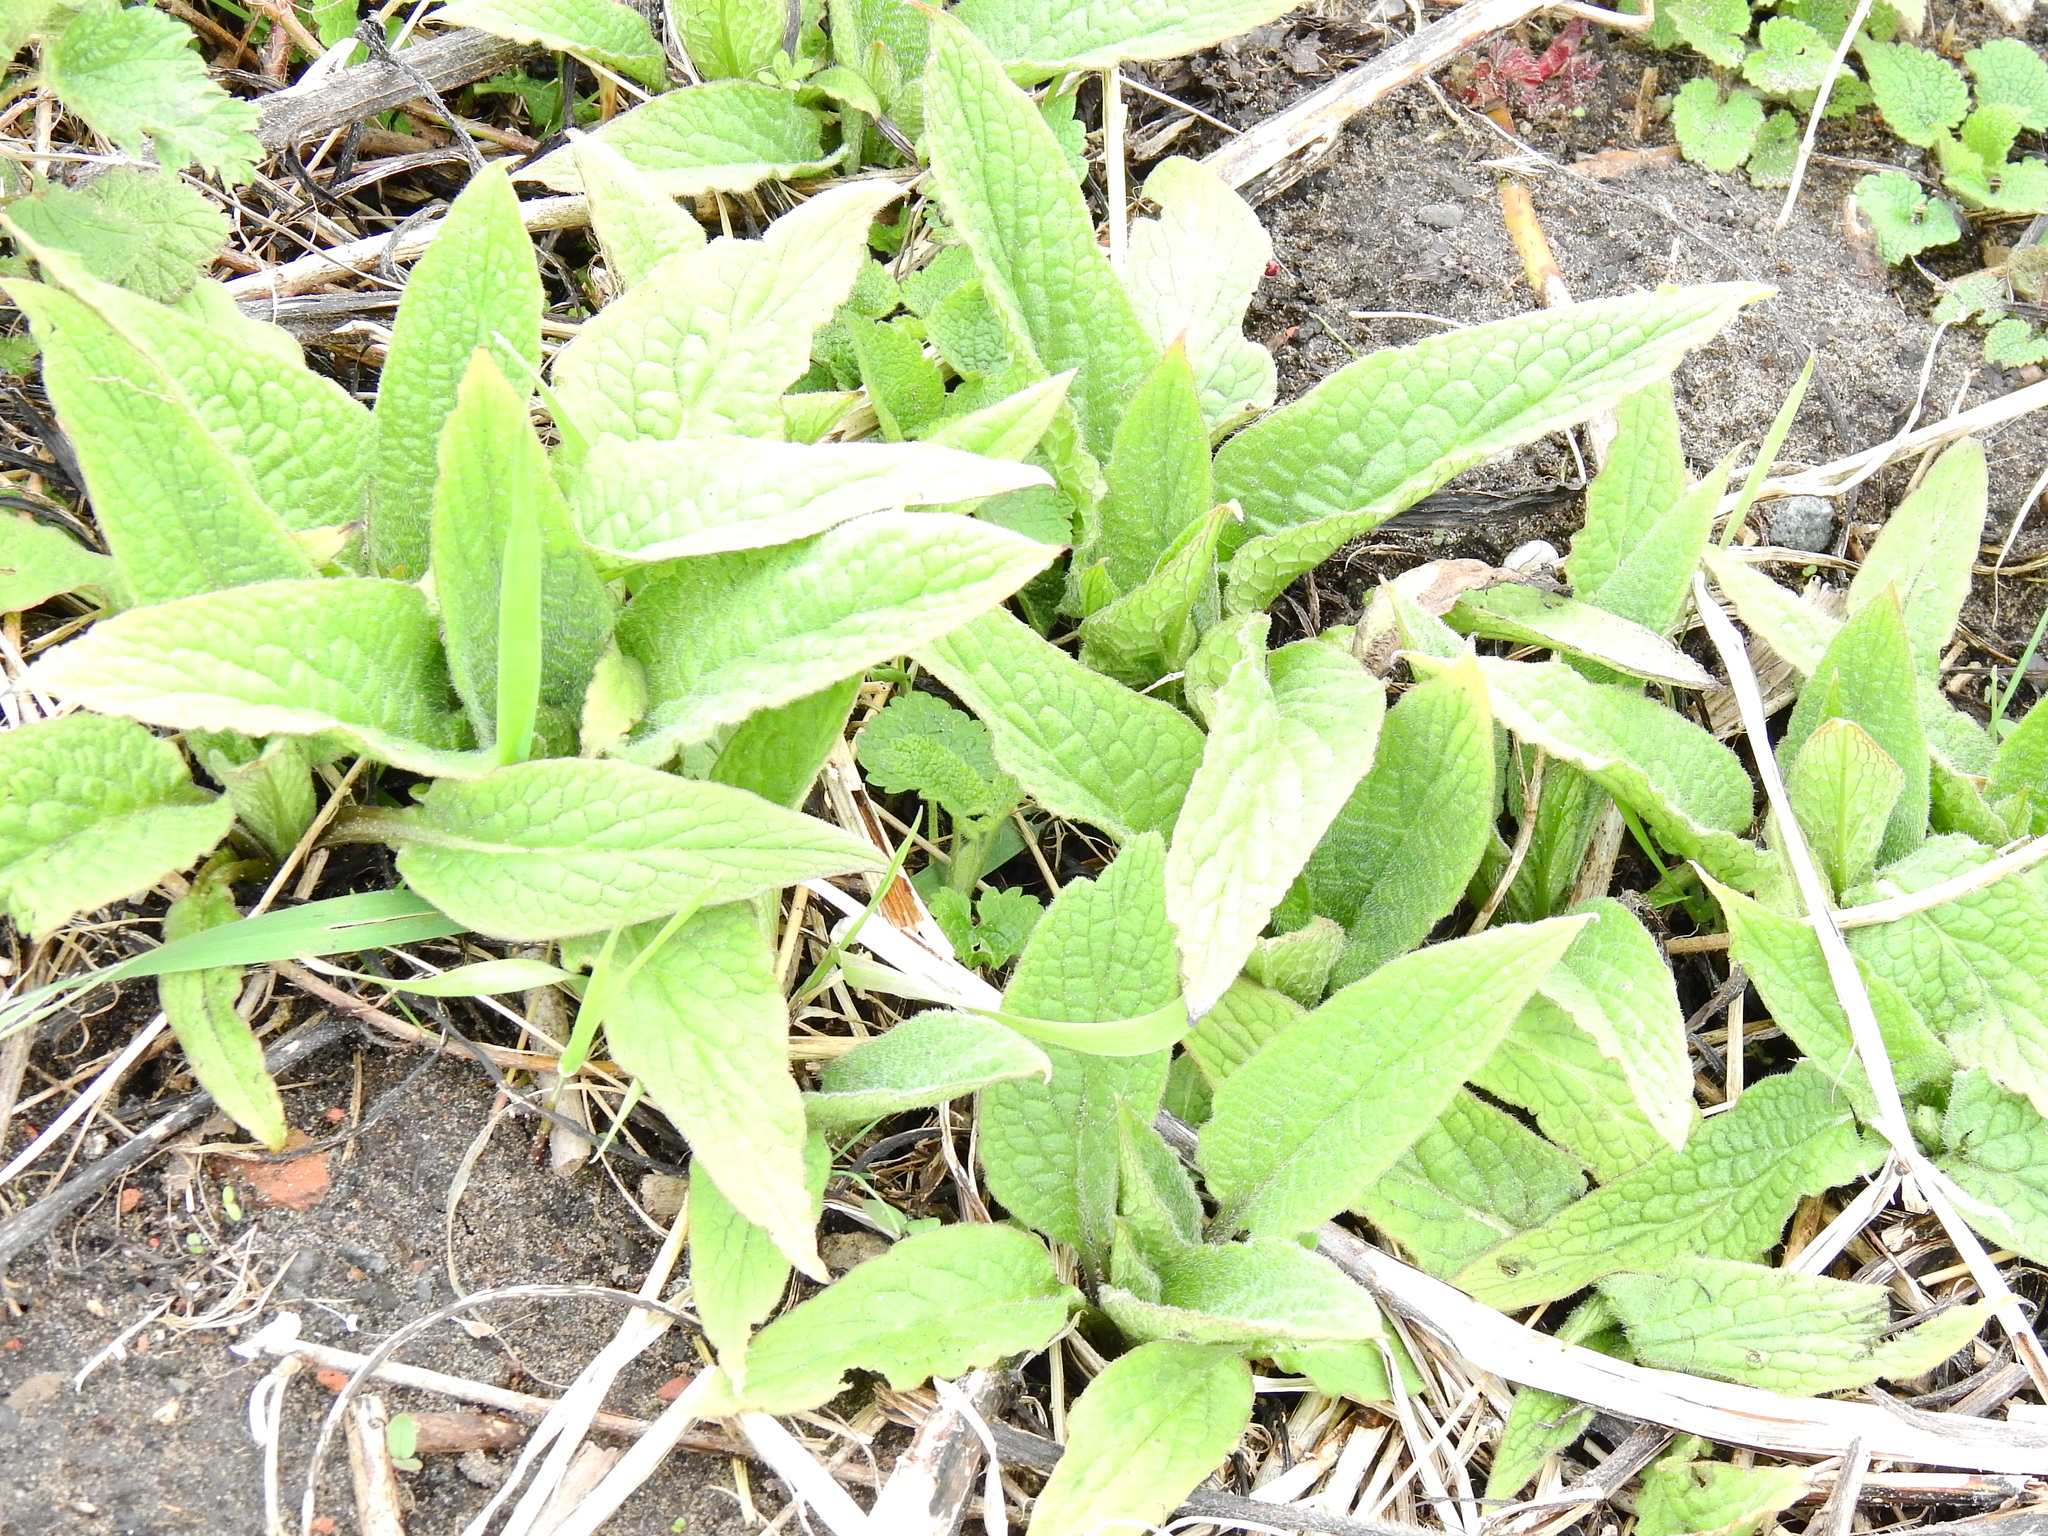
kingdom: Plantae
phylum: Tracheophyta
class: Magnoliopsida
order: Boraginales
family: Boraginaceae
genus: Symphytum
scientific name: Symphytum officinale
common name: Common comfrey
